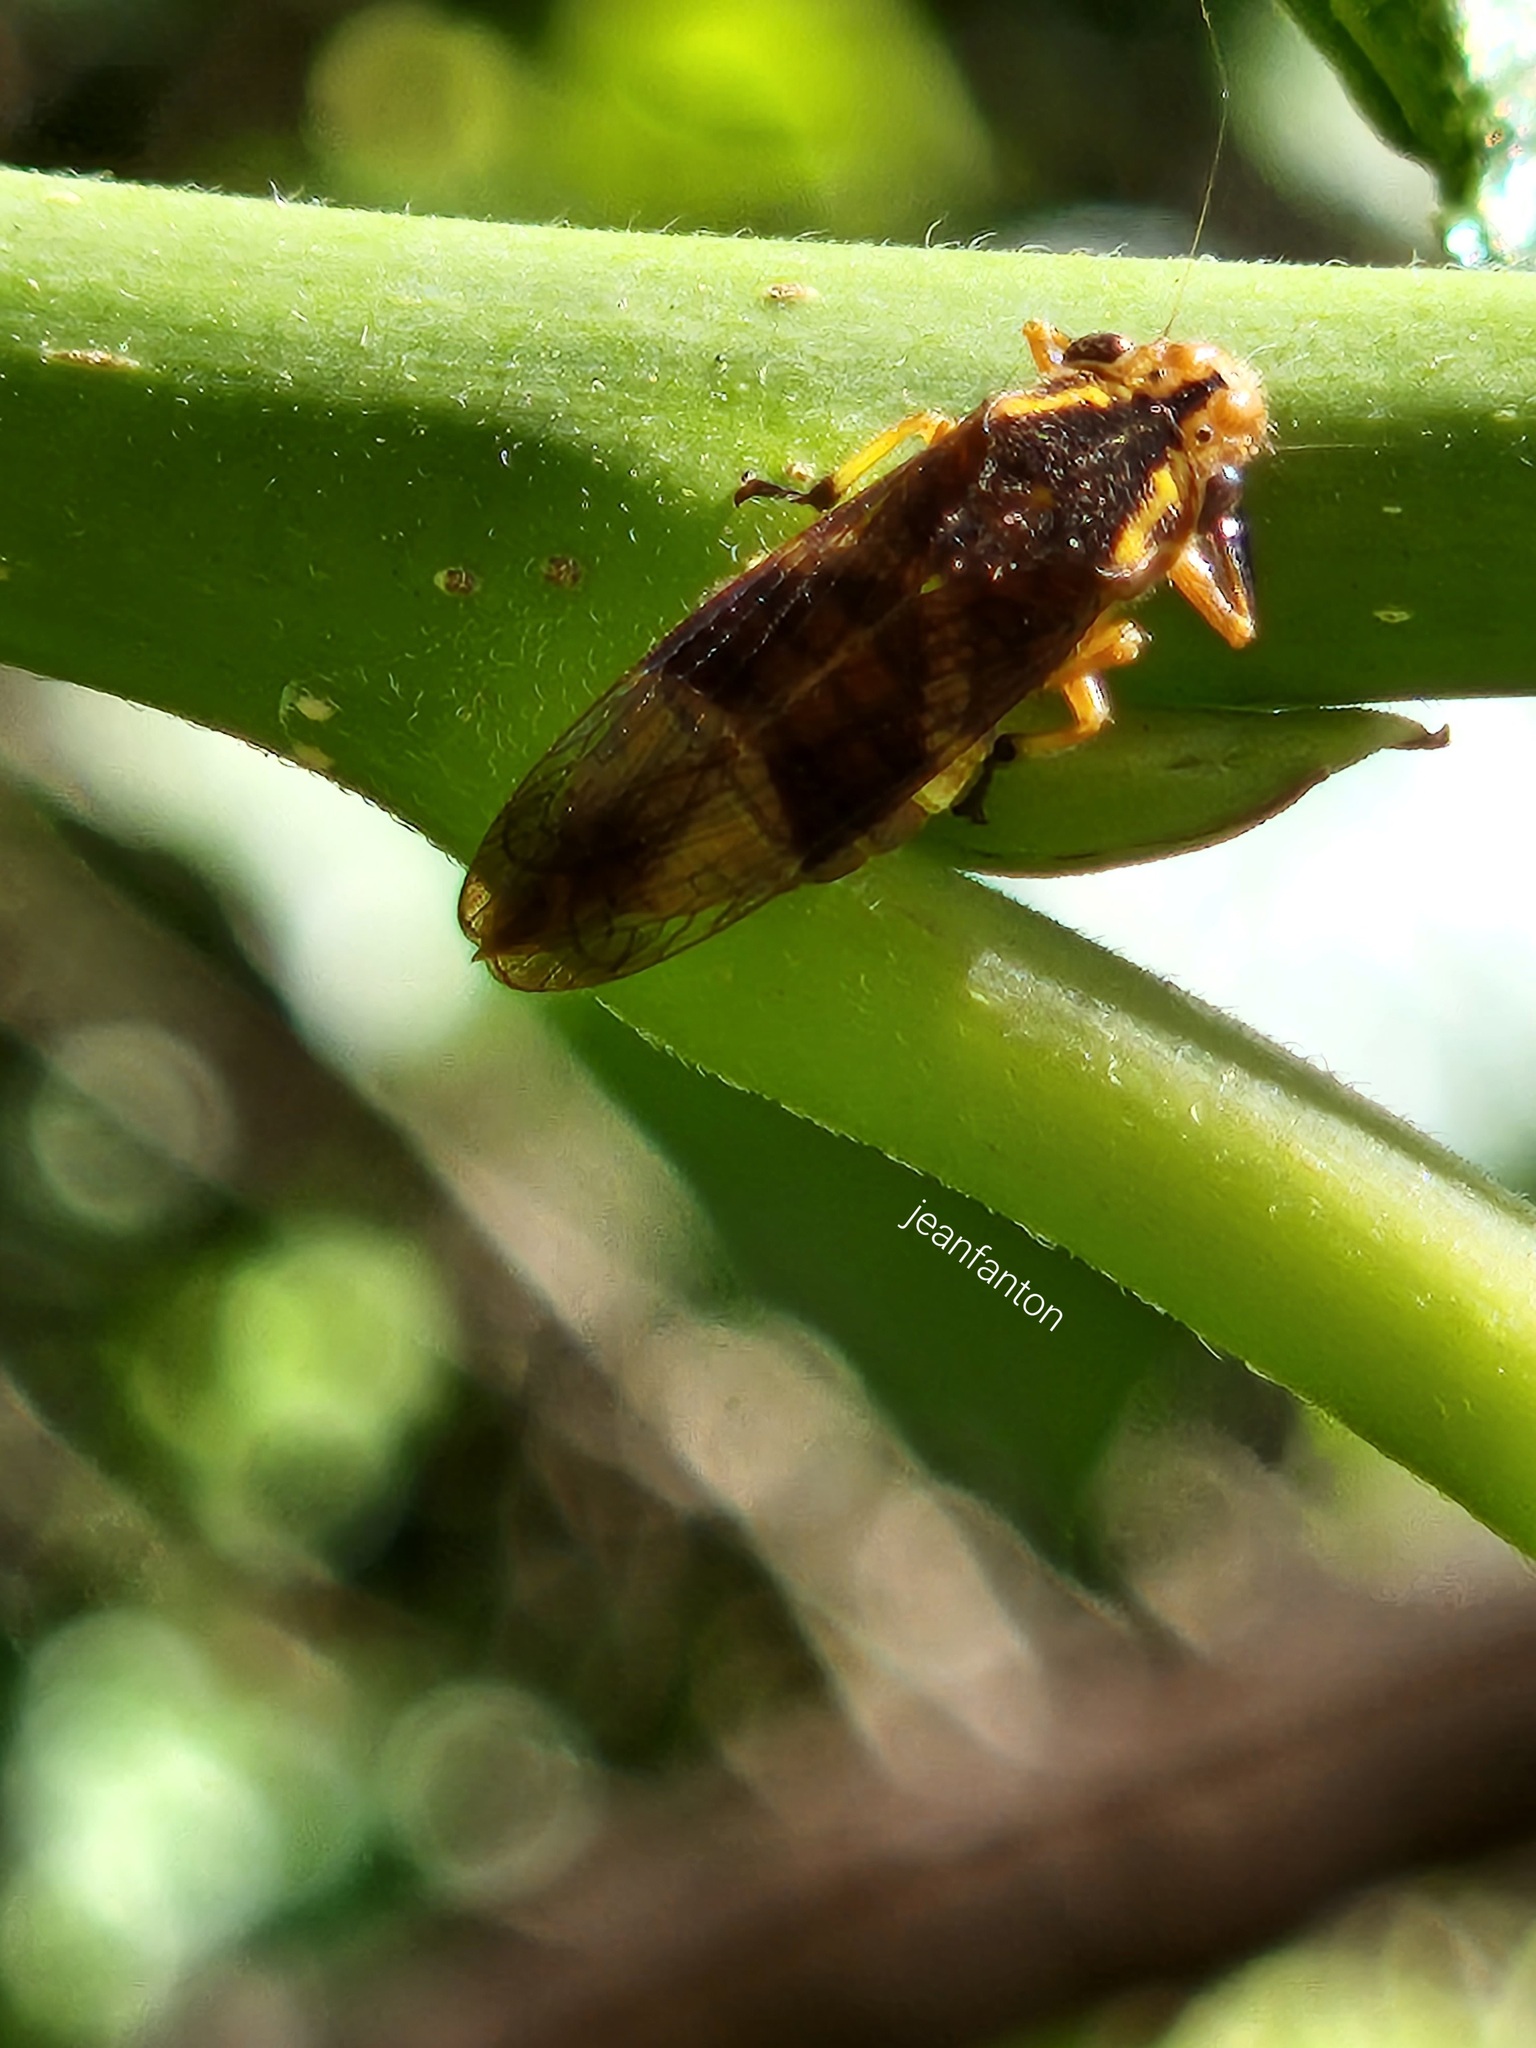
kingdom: Animalia
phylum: Arthropoda
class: Insecta
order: Hemiptera
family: Cicadellidae
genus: Teletusa
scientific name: Teletusa limpida
